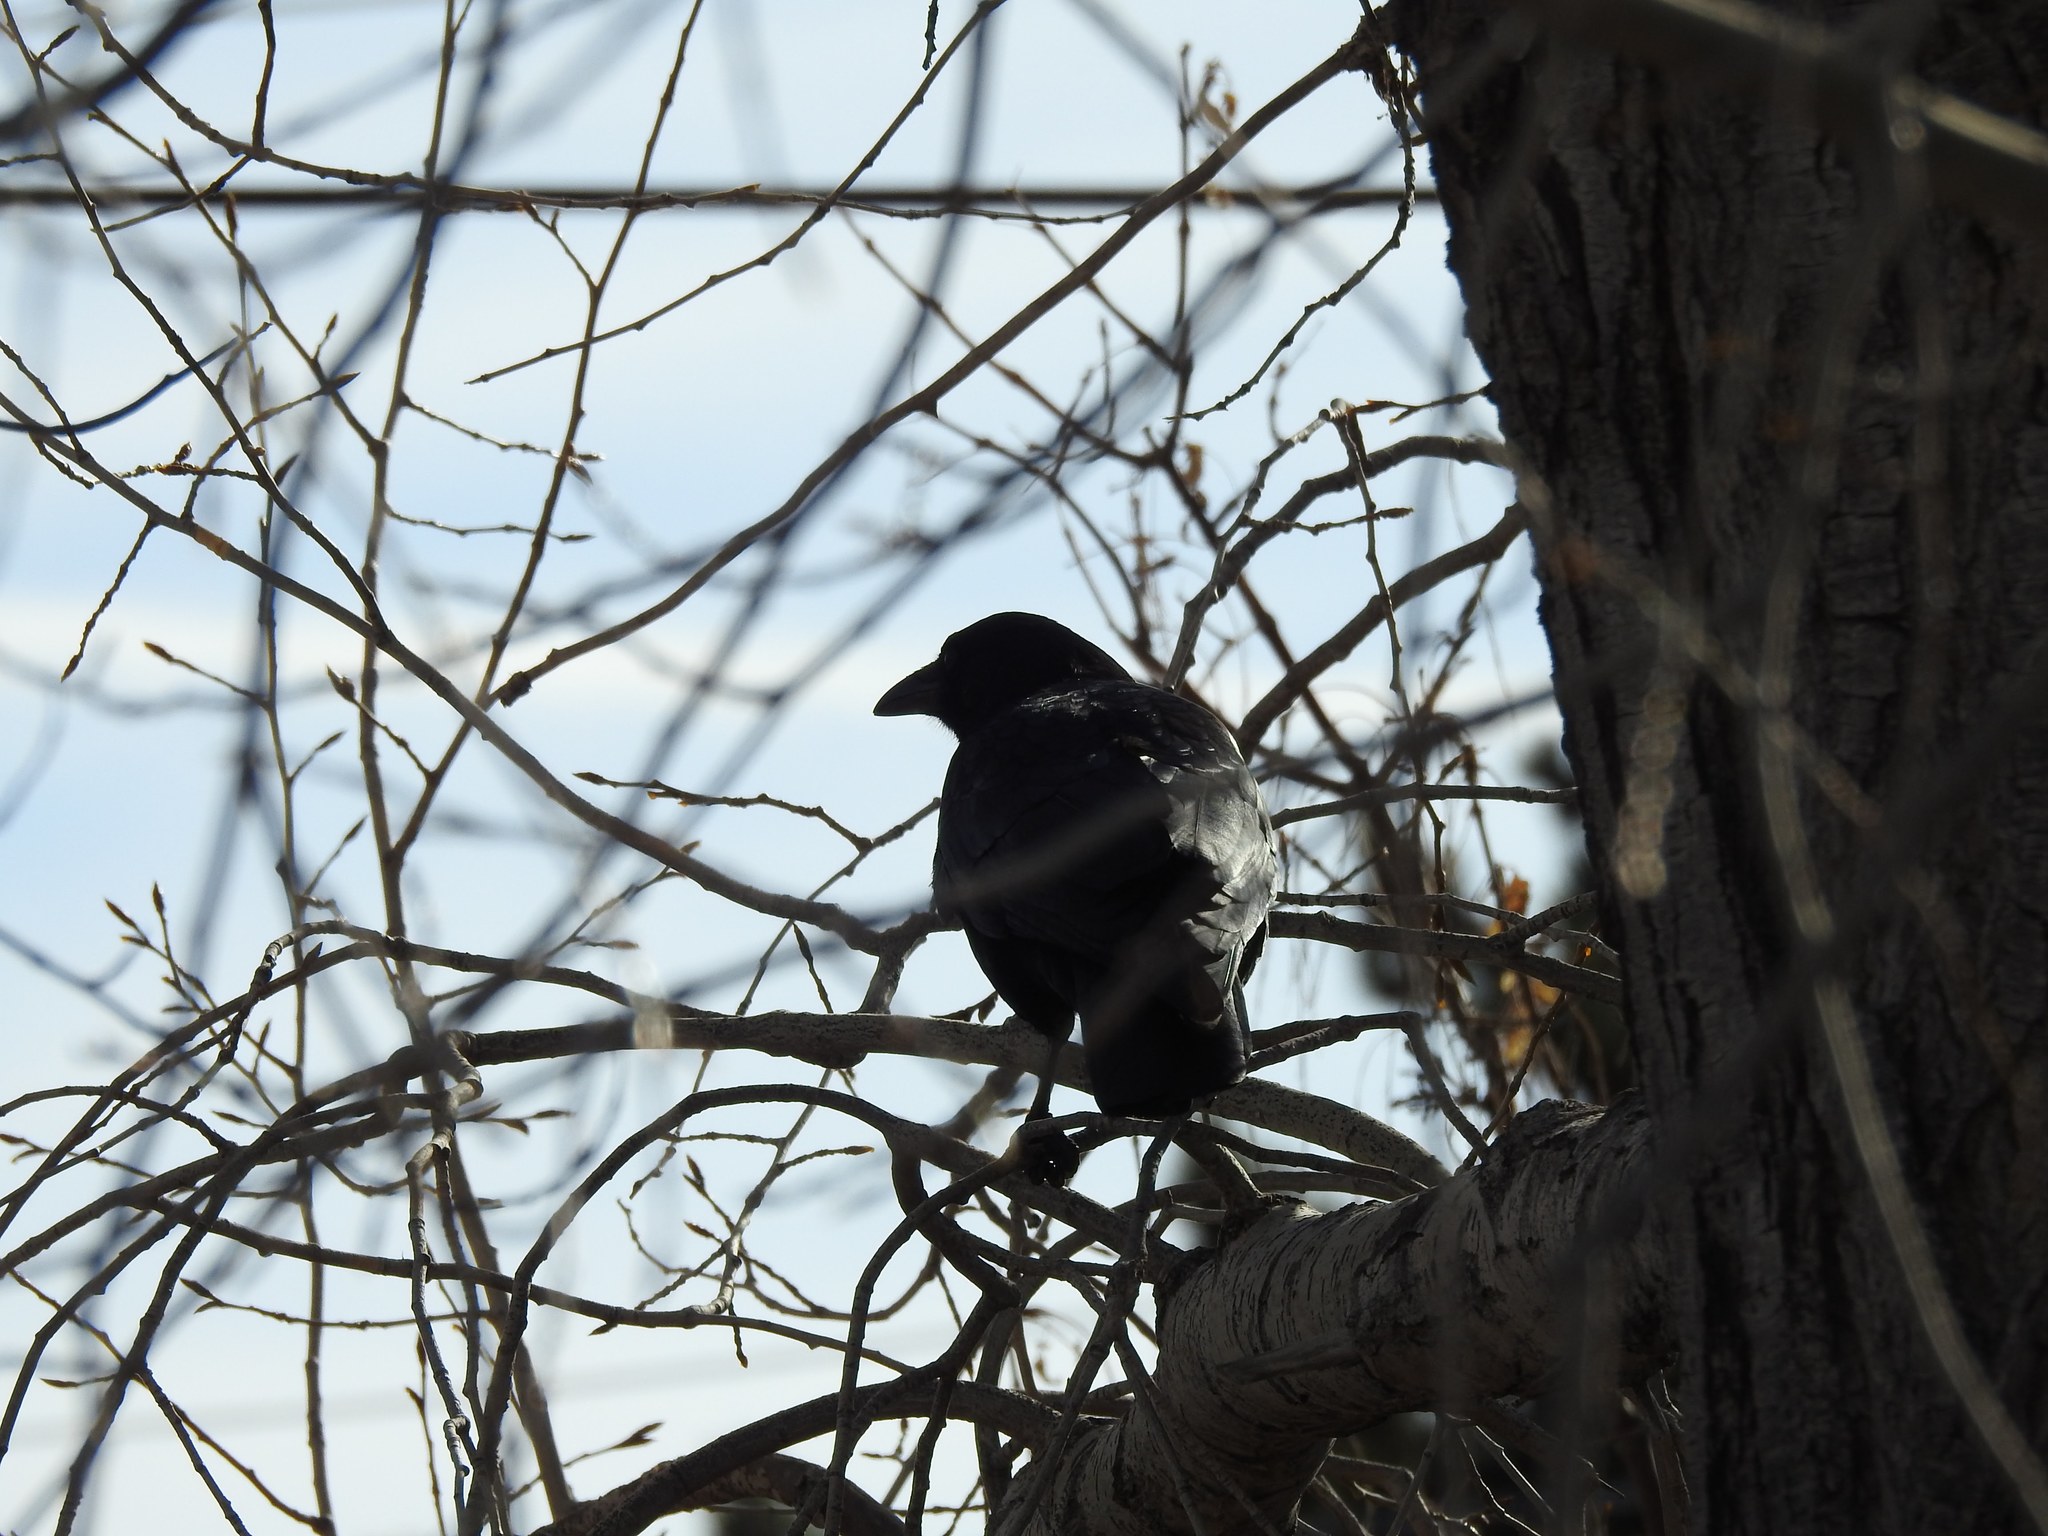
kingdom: Animalia
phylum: Chordata
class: Aves
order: Passeriformes
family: Corvidae
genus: Corvus
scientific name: Corvus brachyrhynchos
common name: American crow
